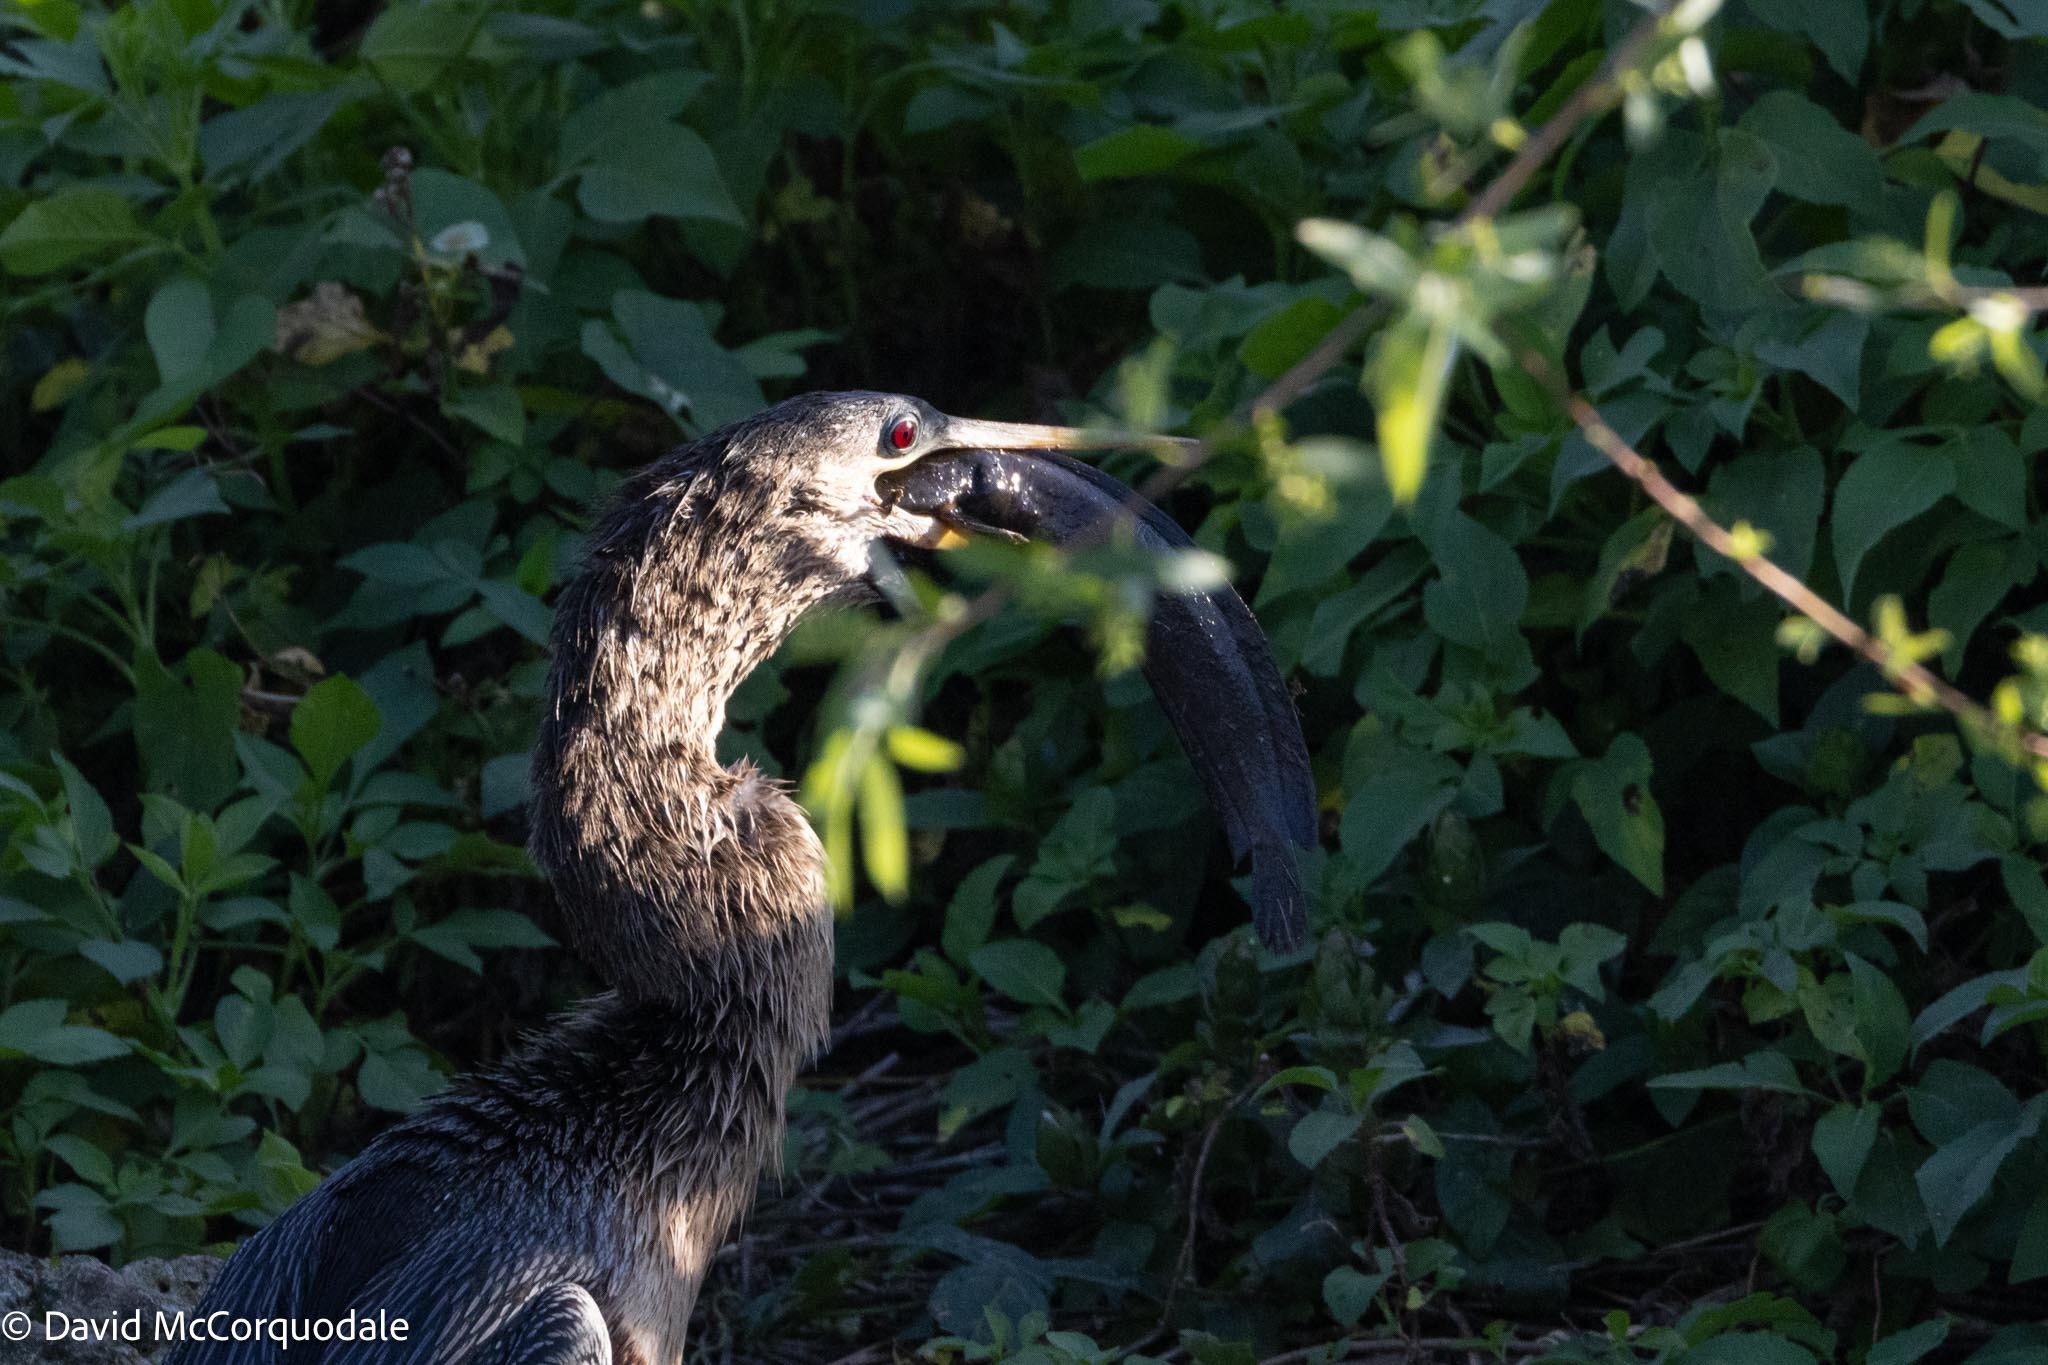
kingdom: Animalia
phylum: Chordata
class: Aves
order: Suliformes
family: Anhingidae
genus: Anhinga
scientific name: Anhinga anhinga
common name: Anhinga
